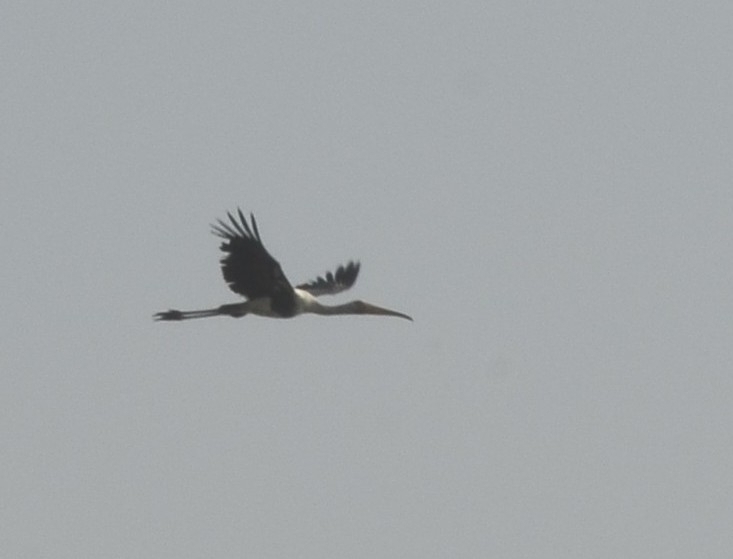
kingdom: Animalia
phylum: Chordata
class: Aves
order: Ciconiiformes
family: Ciconiidae
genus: Mycteria
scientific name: Mycteria leucocephala
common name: Painted stork
